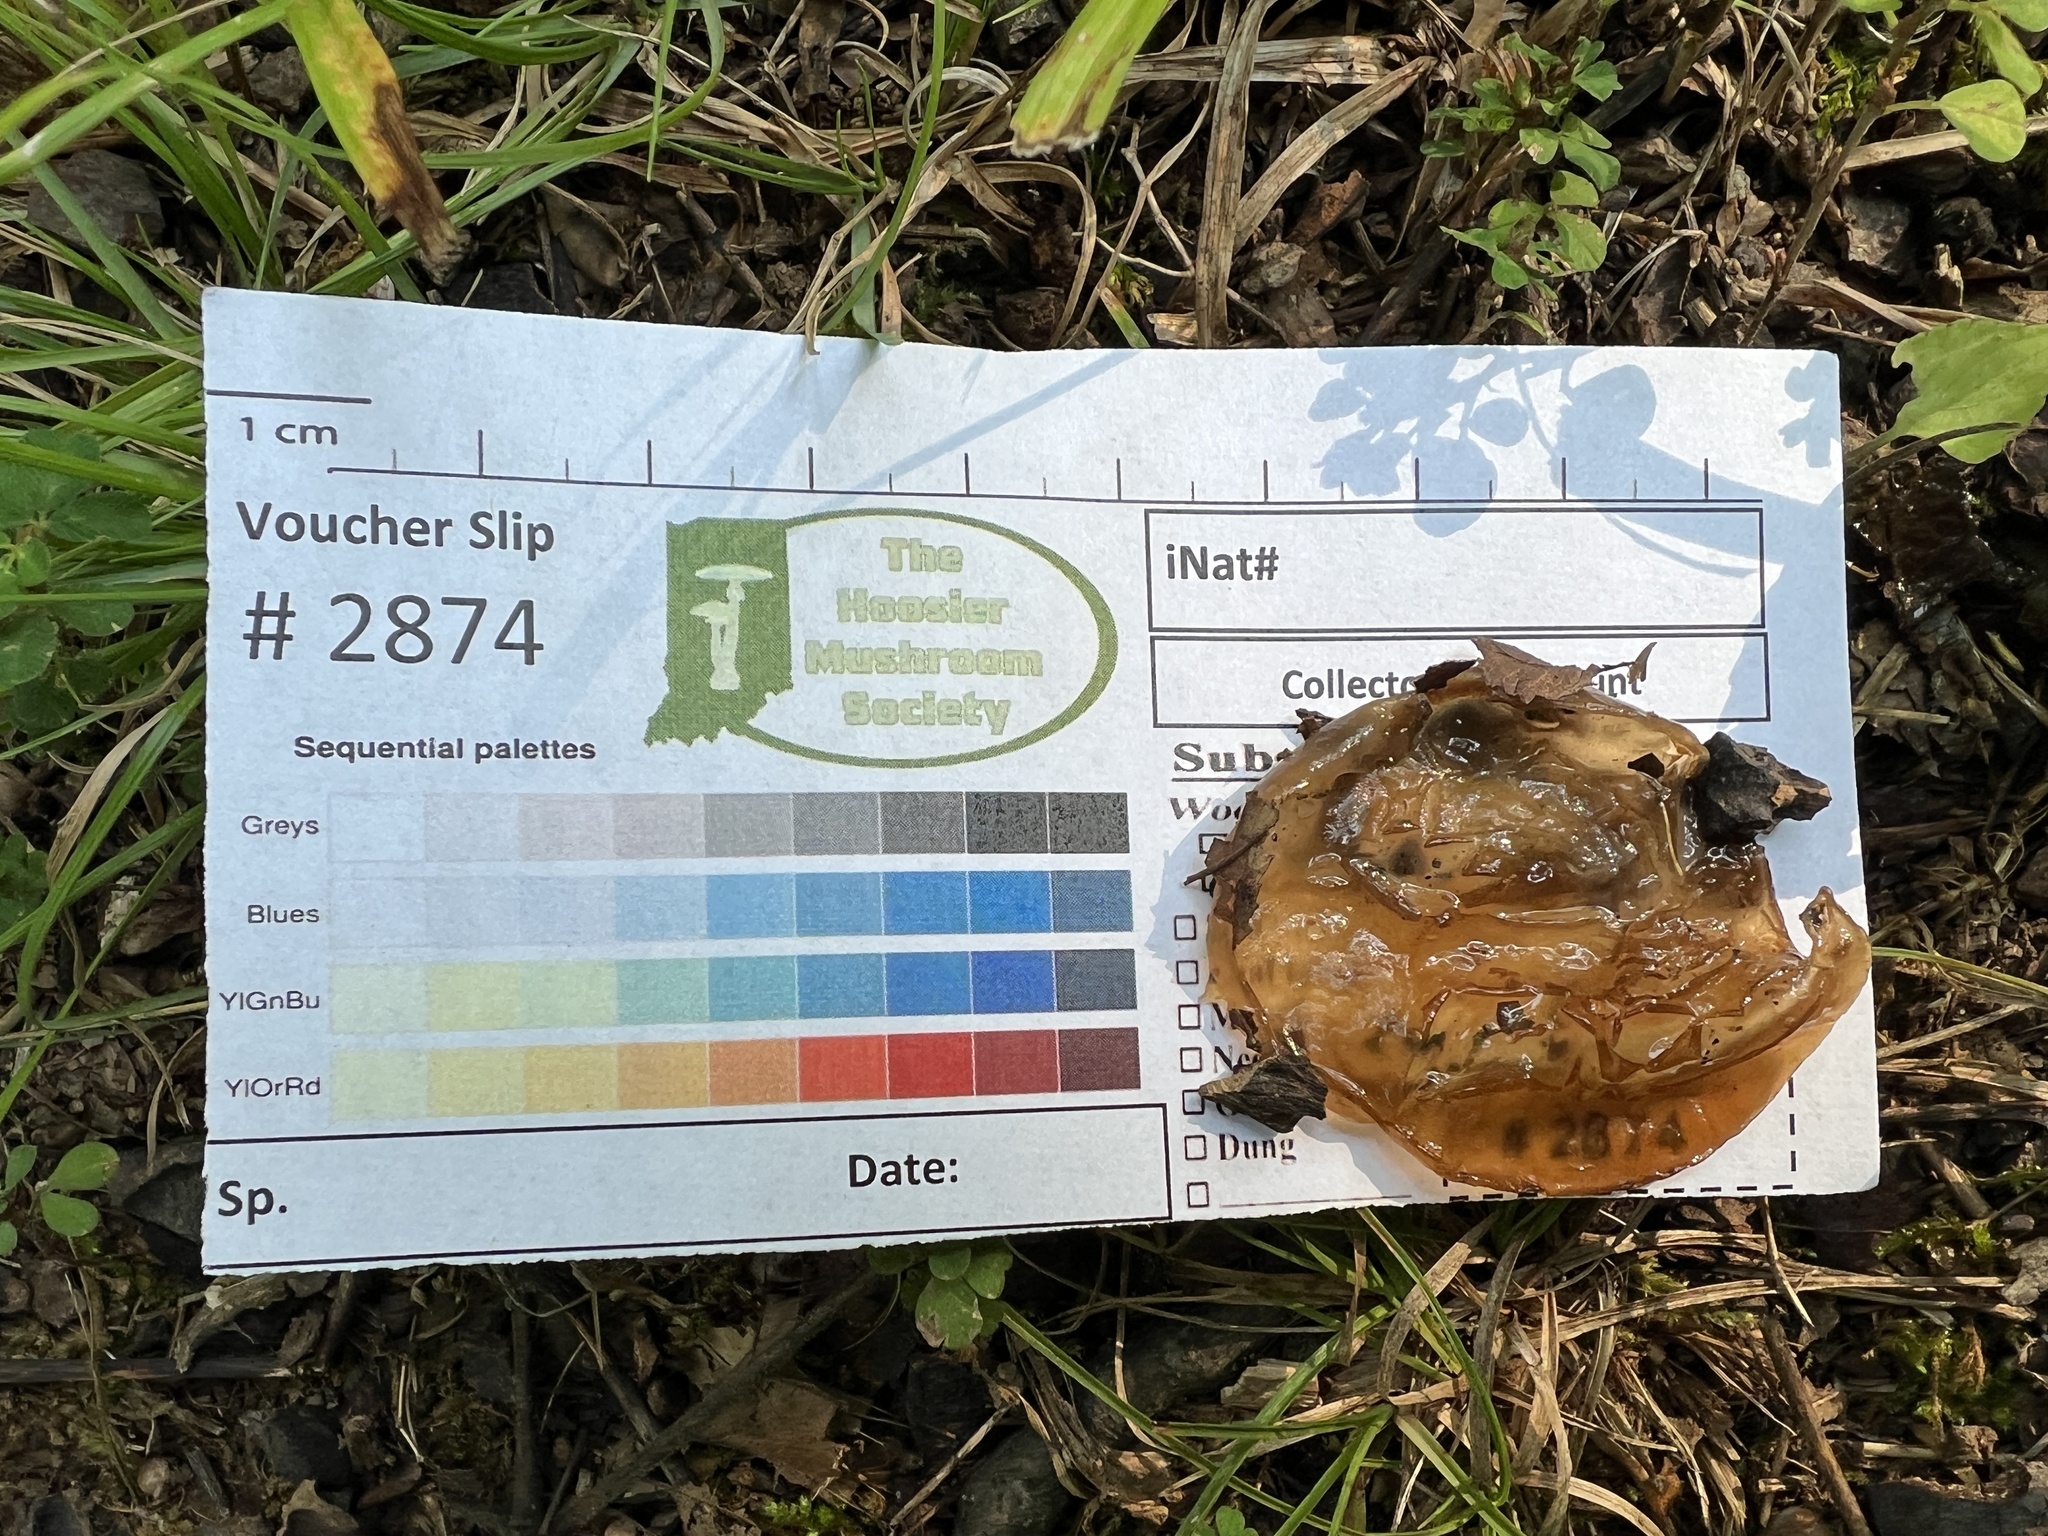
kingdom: Fungi
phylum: Basidiomycota
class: Agaricomycetes
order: Auriculariales
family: Auriculariaceae
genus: Auricularia
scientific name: Auricularia angiospermarum
